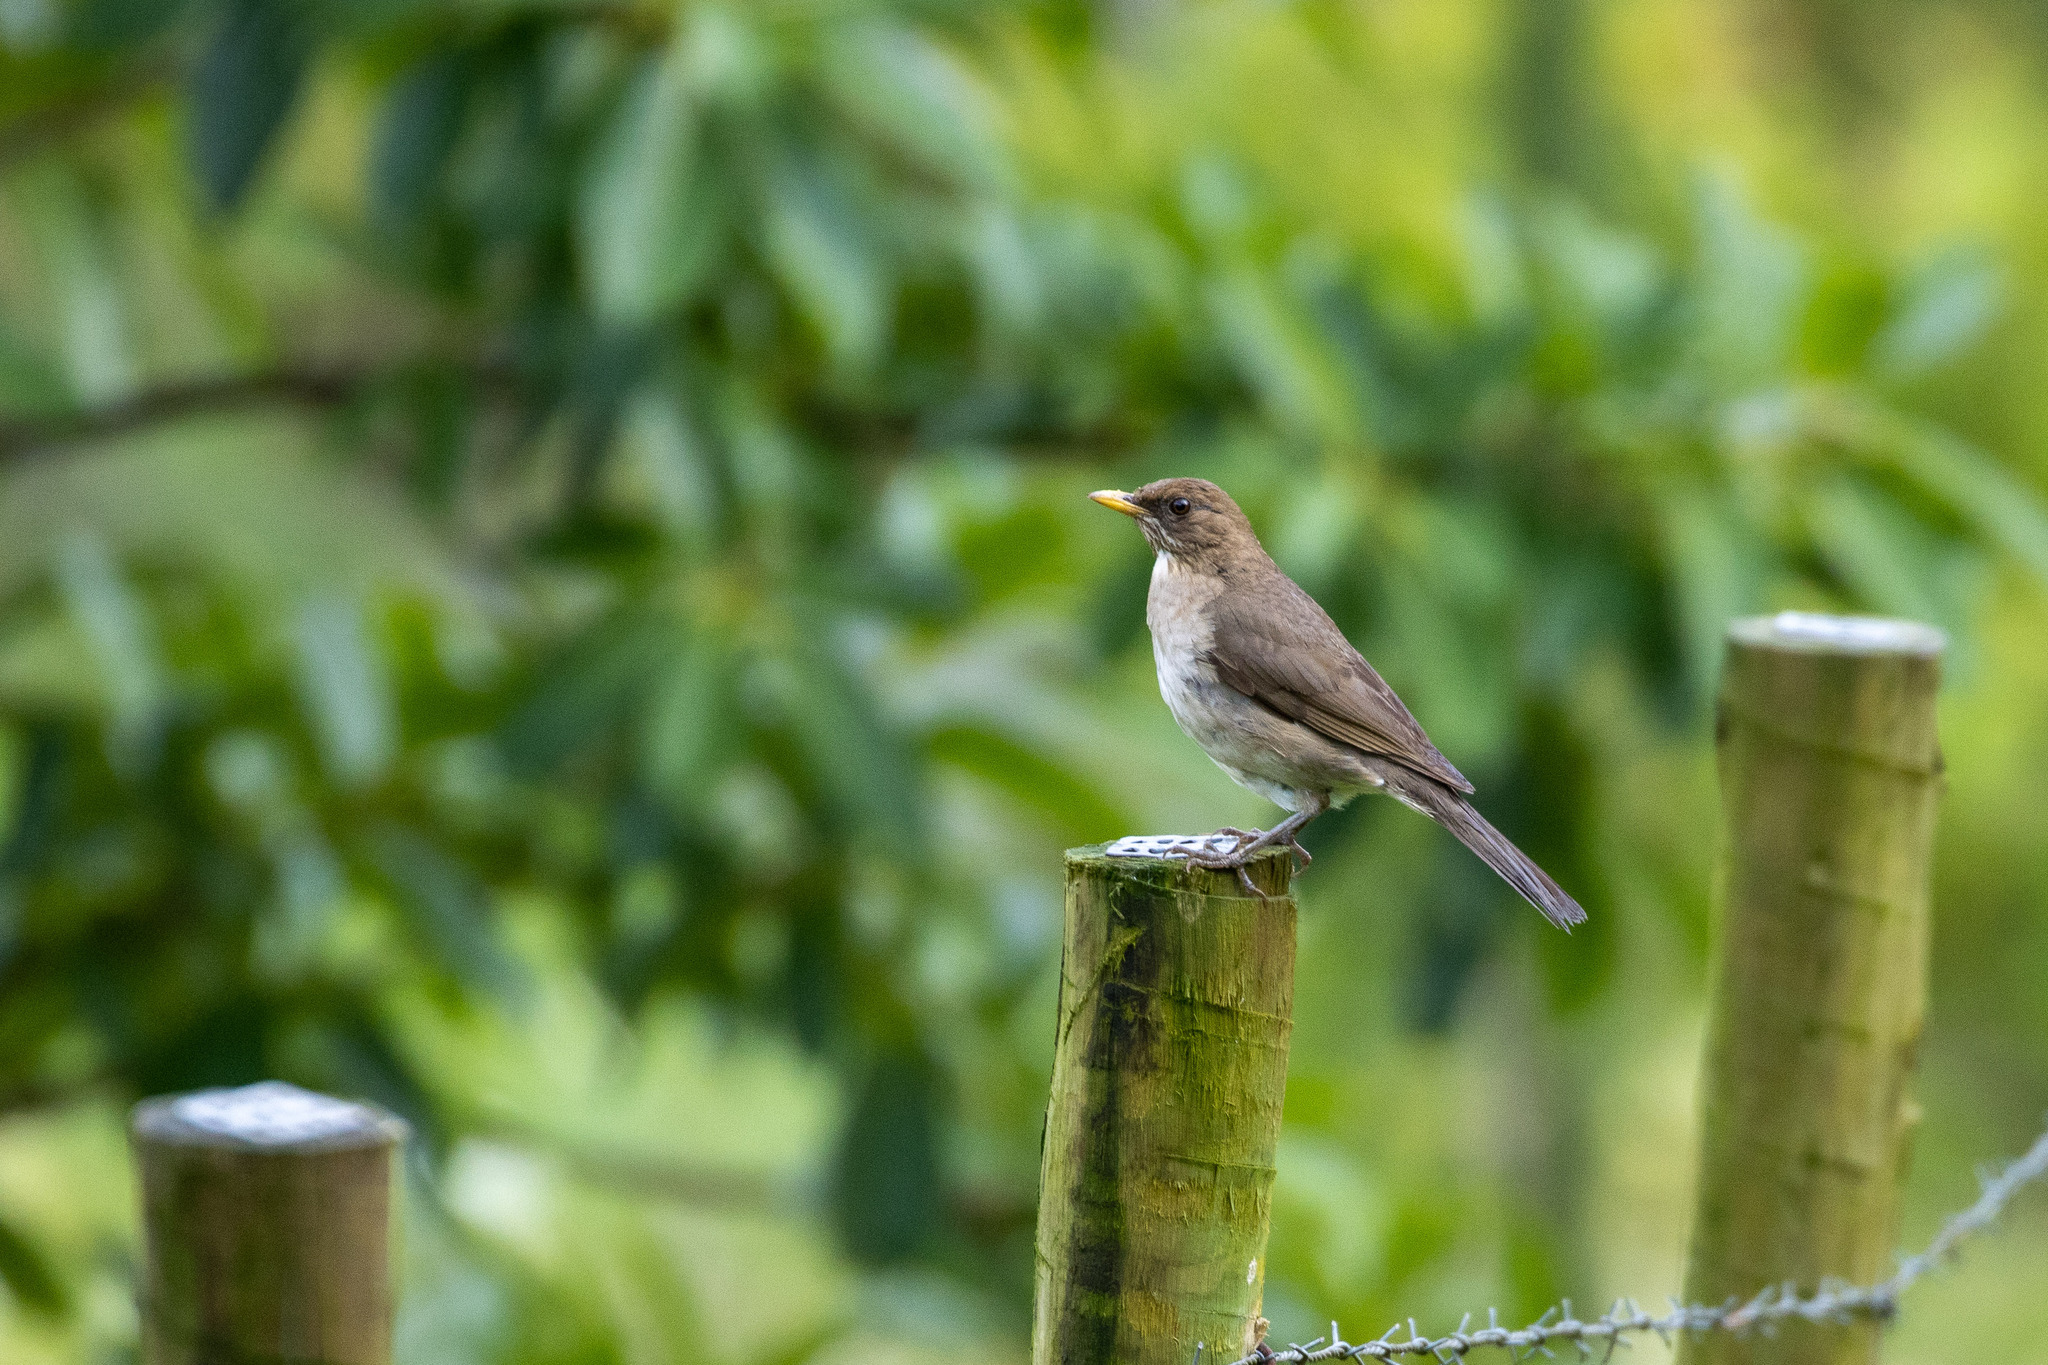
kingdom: Animalia
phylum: Chordata
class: Aves
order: Passeriformes
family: Turdidae
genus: Turdus
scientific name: Turdus amaurochalinus
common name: Creamy-bellied thrush
